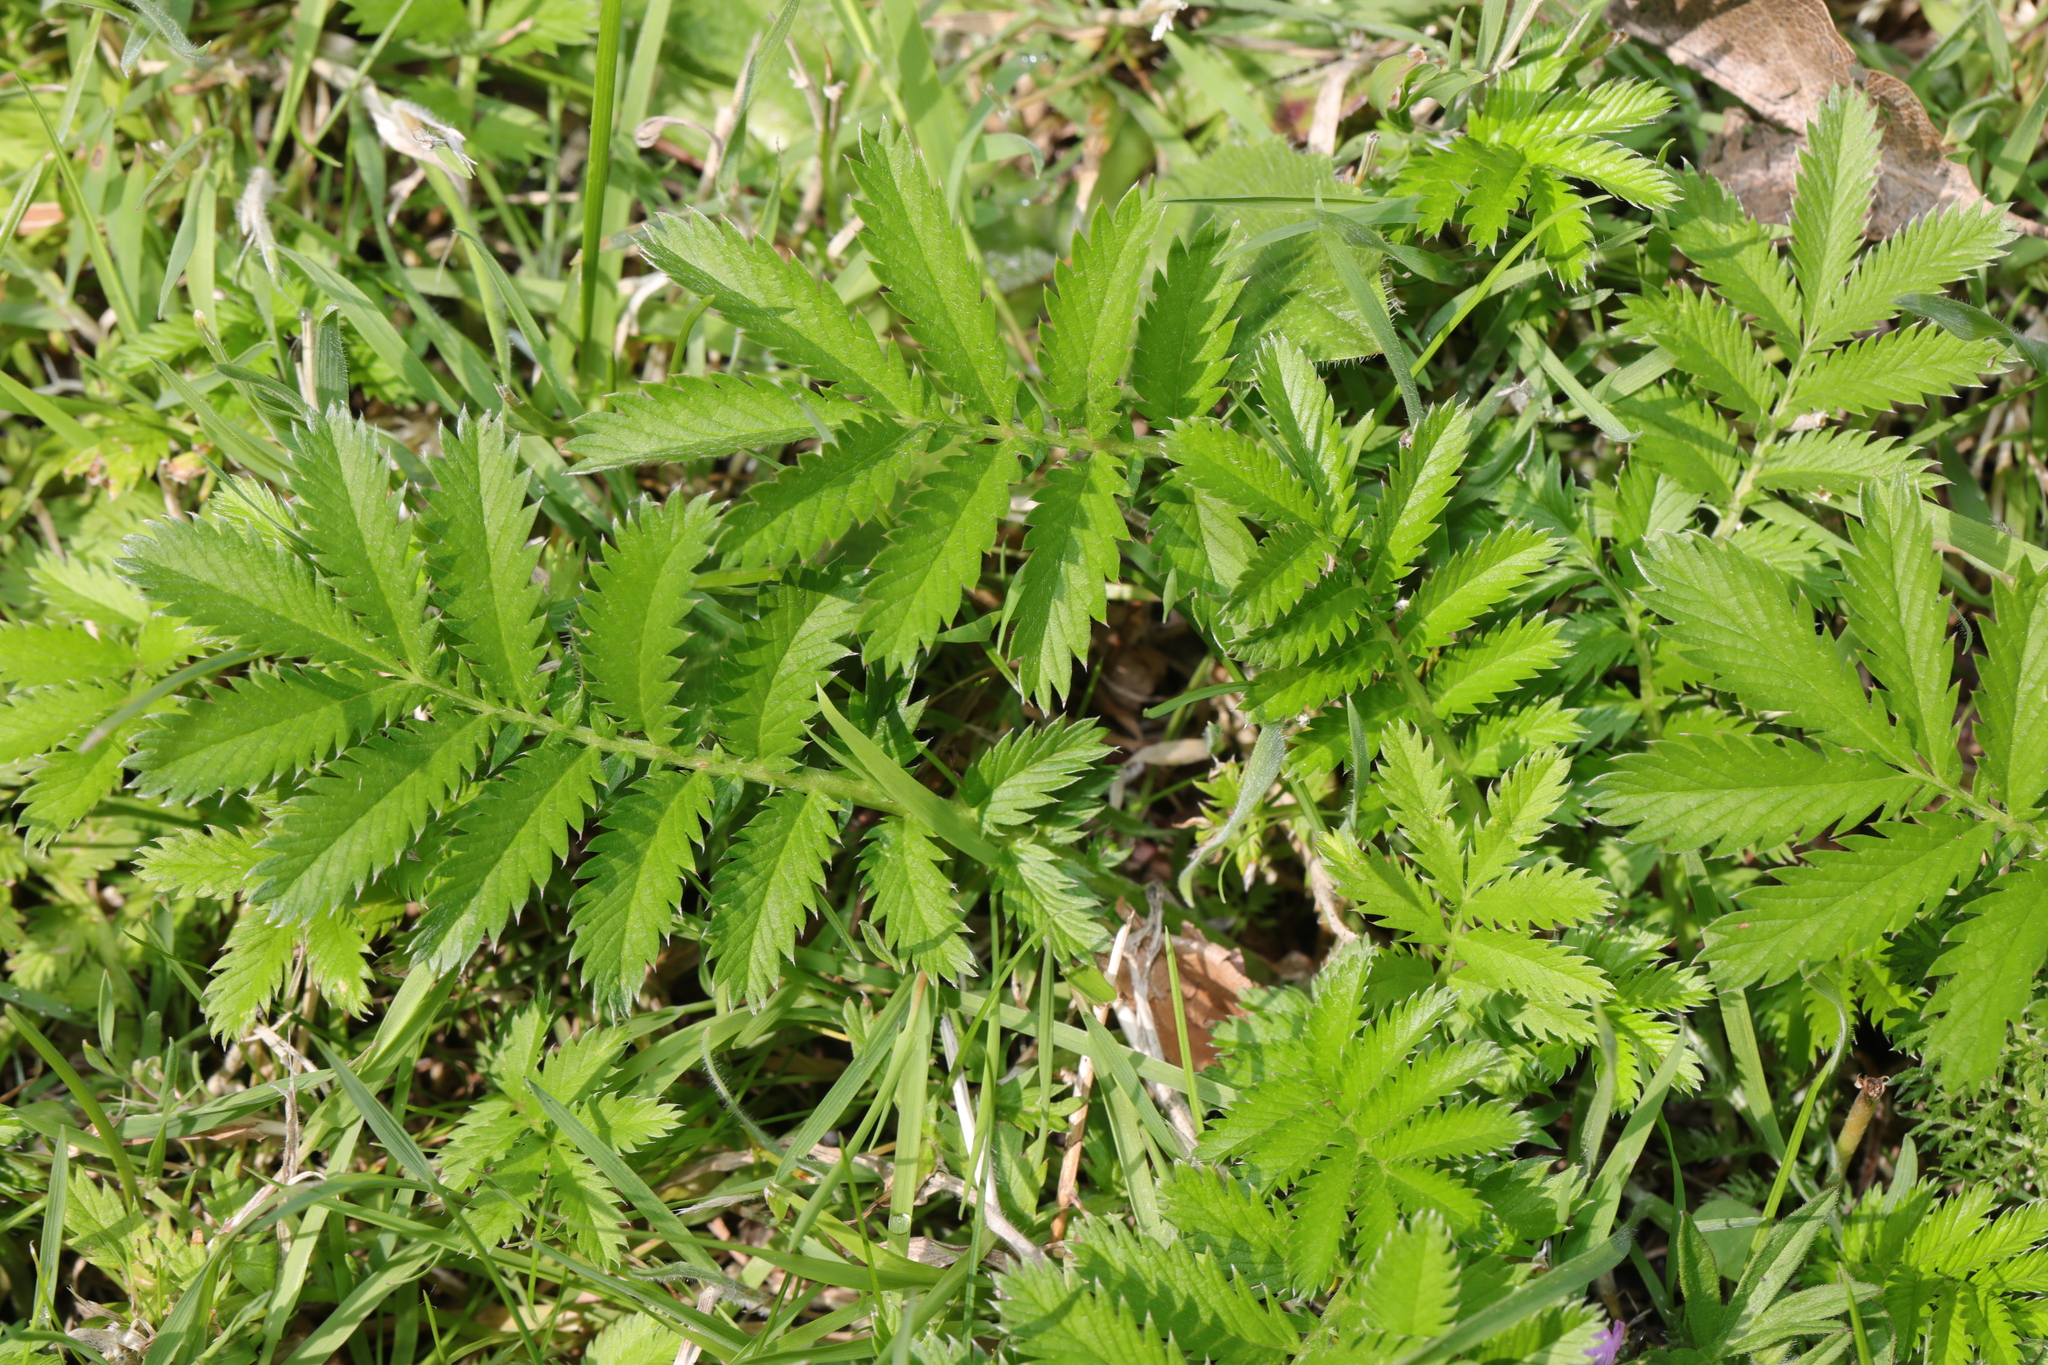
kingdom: Plantae
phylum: Tracheophyta
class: Magnoliopsida
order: Rosales
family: Rosaceae
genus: Argentina
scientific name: Argentina anserina
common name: Common silverweed
